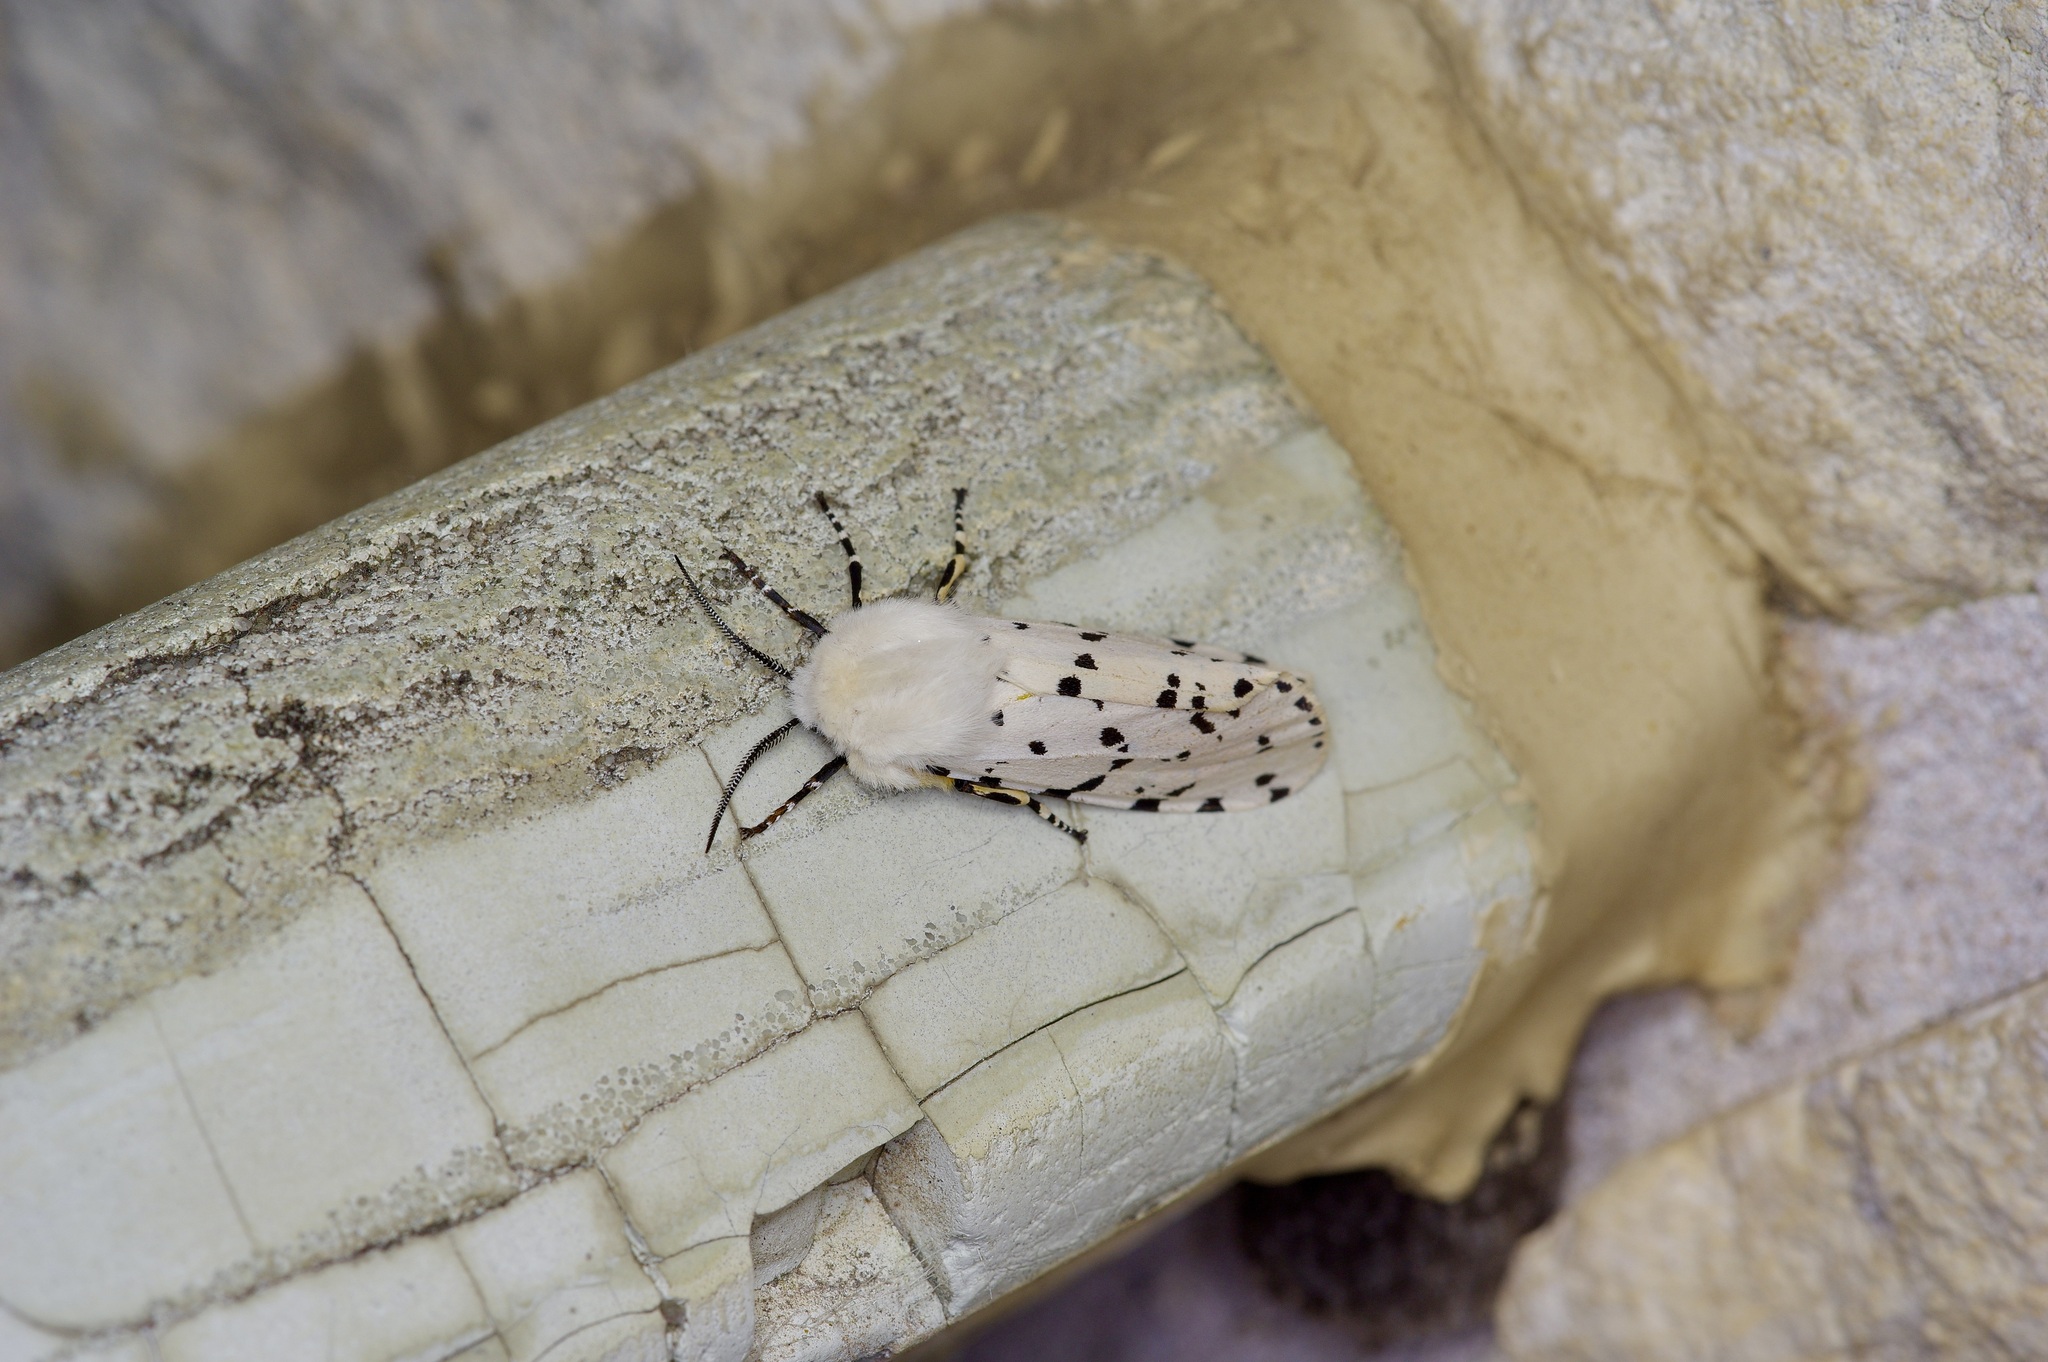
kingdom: Animalia
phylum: Arthropoda
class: Insecta
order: Lepidoptera
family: Erebidae
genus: Estigmene
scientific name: Estigmene acrea
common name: Salt marsh moth
